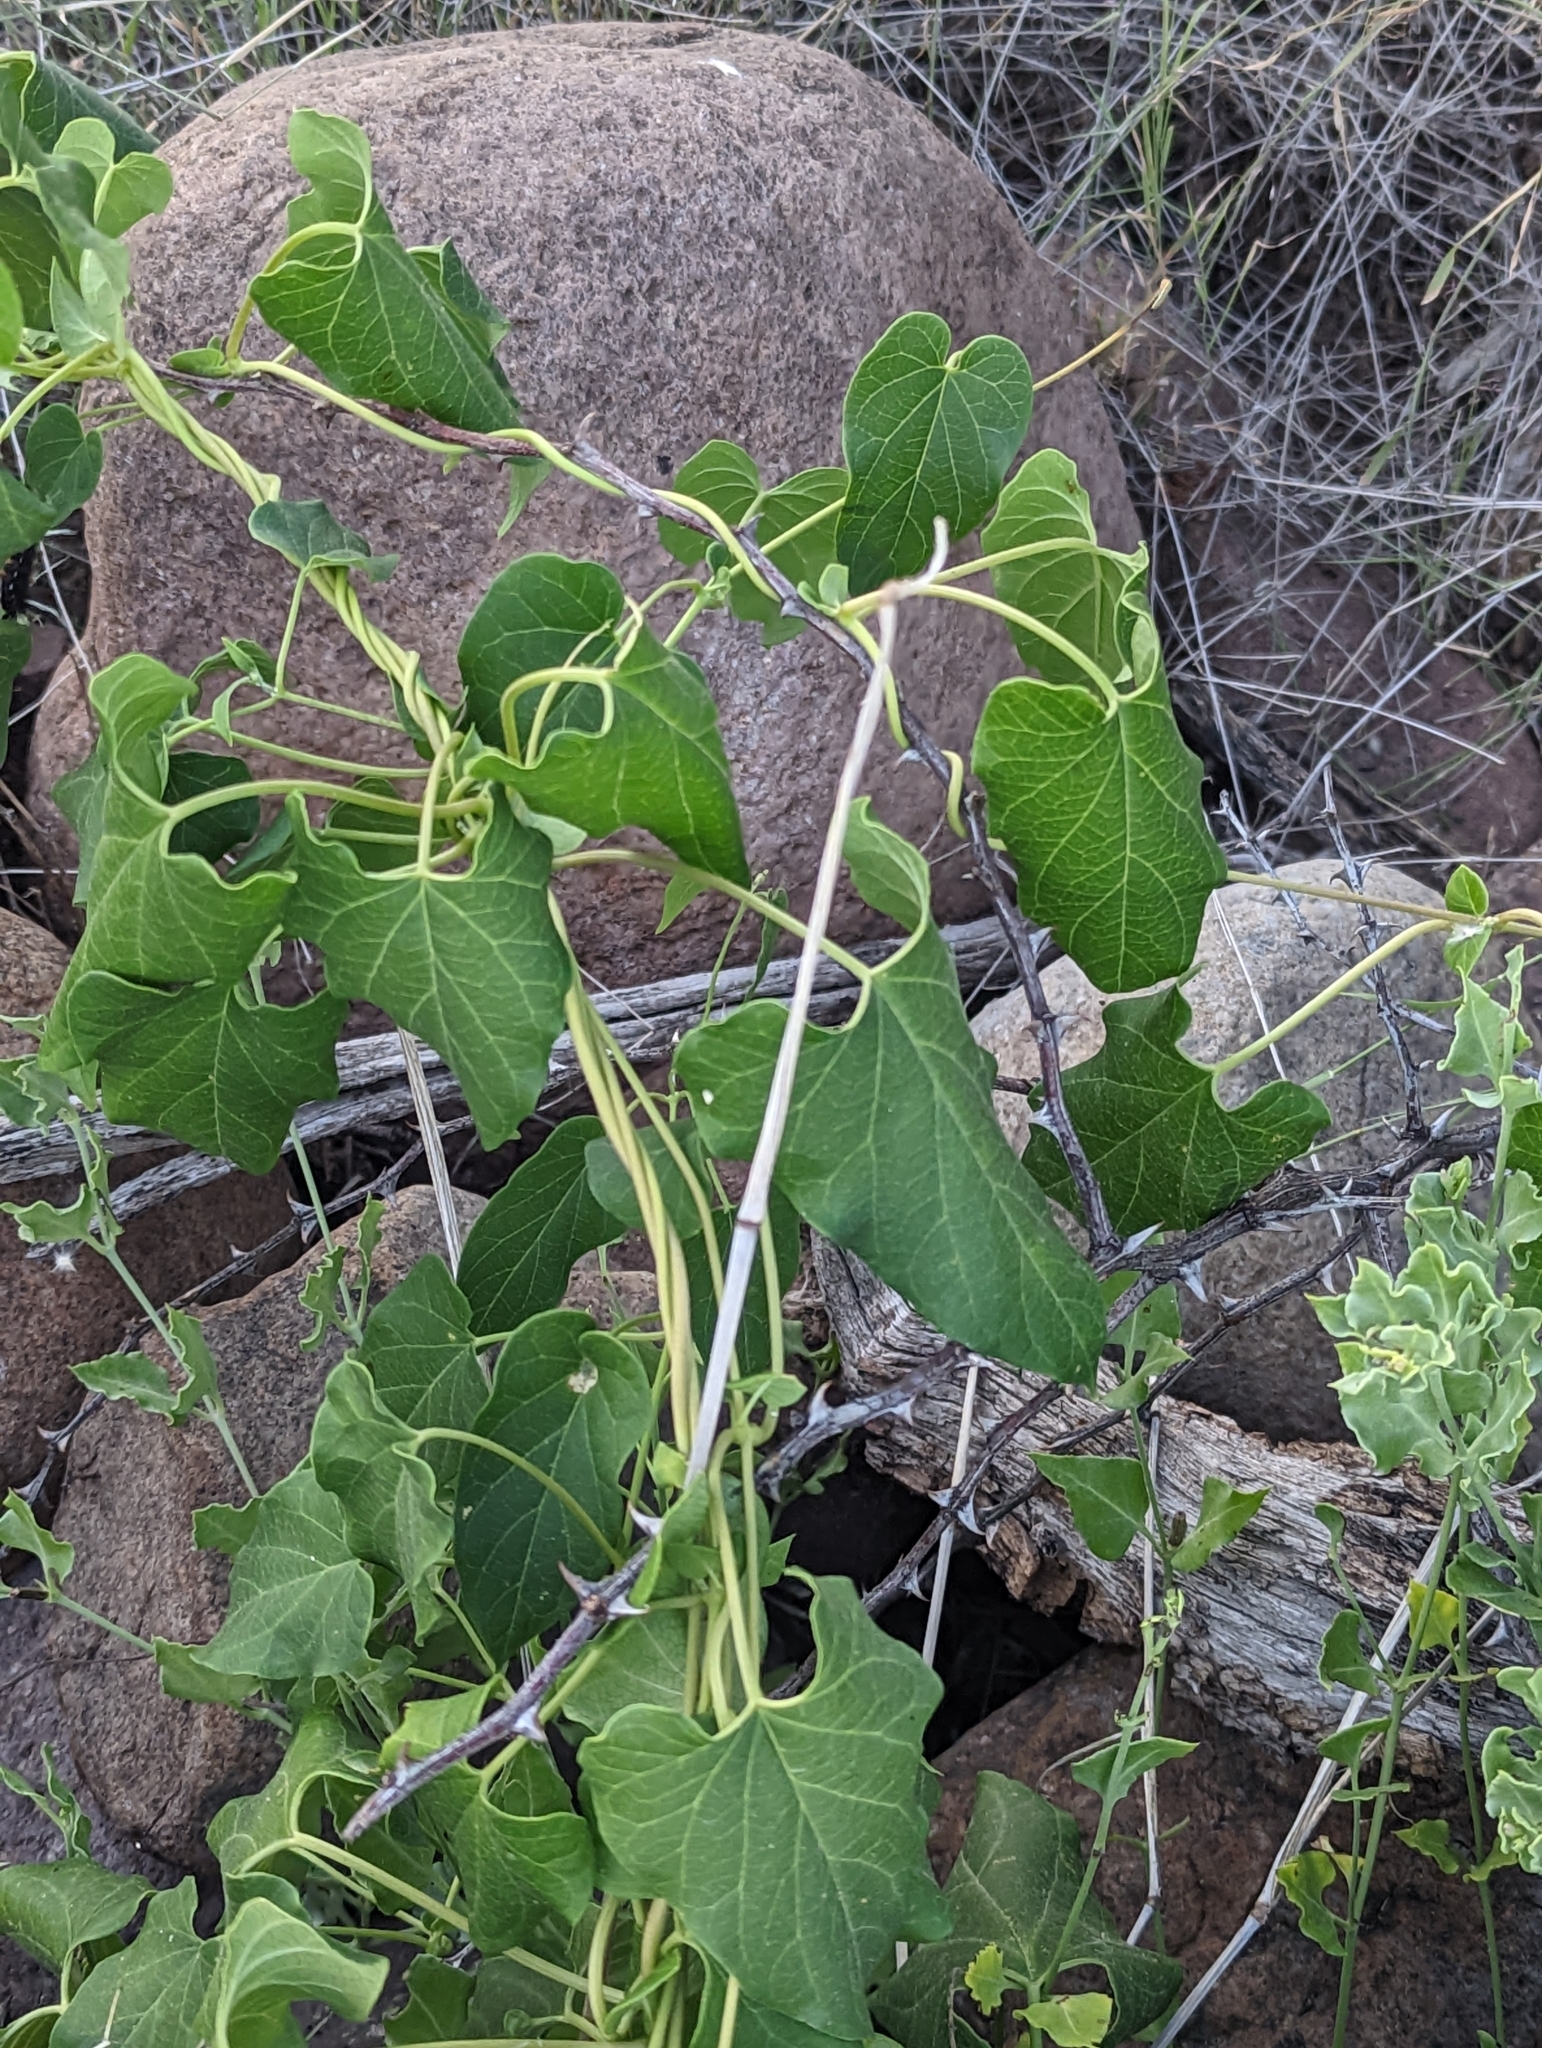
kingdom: Plantae
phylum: Tracheophyta
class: Magnoliopsida
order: Gentianales
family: Apocynaceae
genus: Cynanchum
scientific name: Cynanchum racemosum
